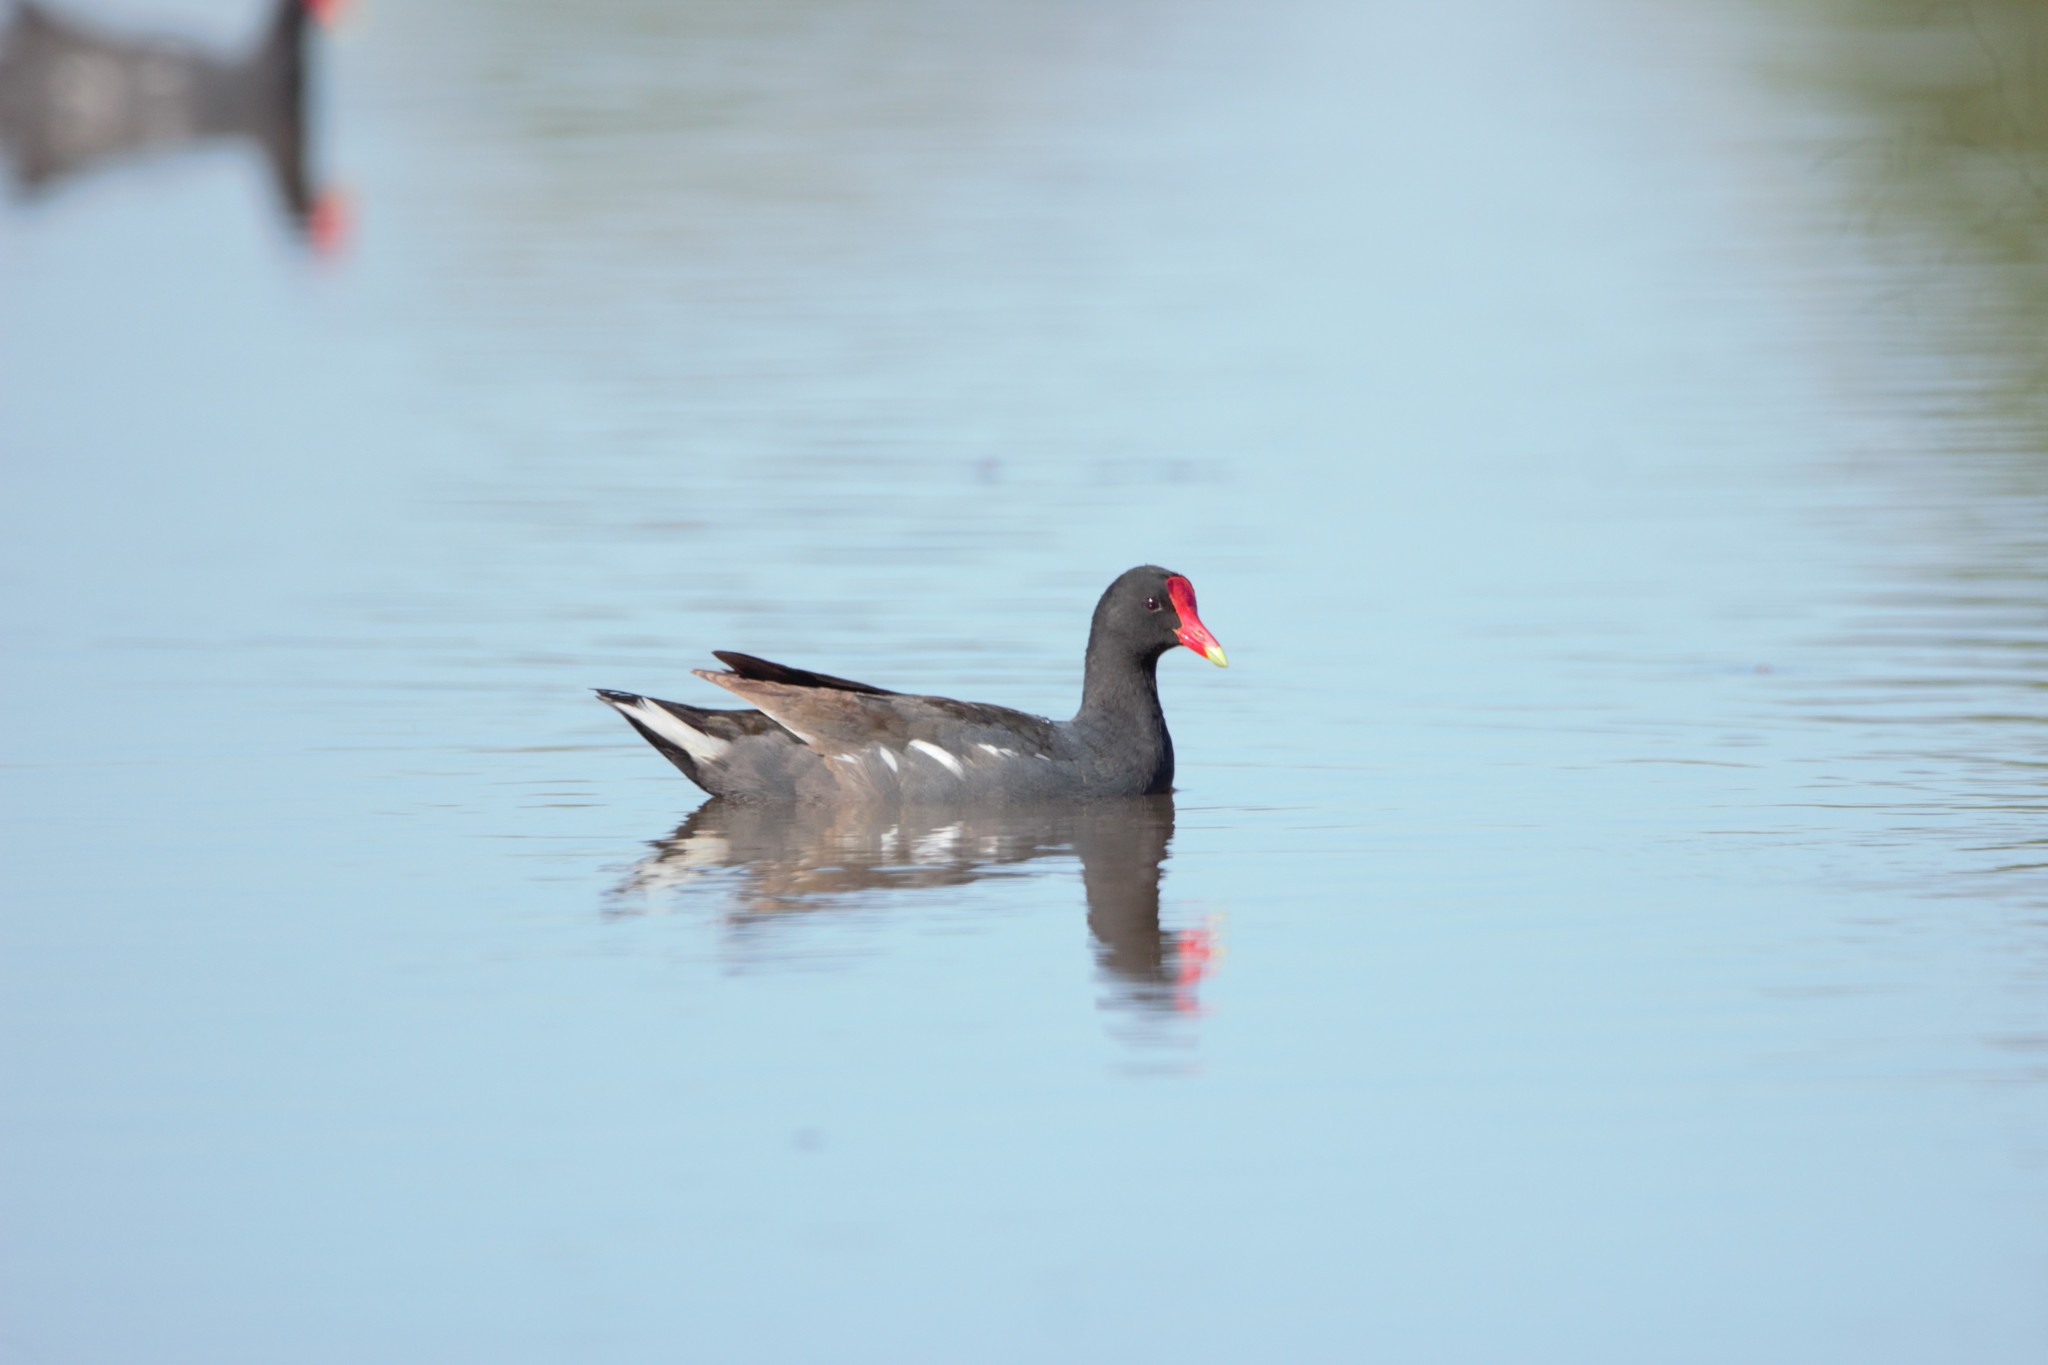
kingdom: Animalia
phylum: Chordata
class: Aves
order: Gruiformes
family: Rallidae
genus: Gallinula
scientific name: Gallinula chloropus
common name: Common moorhen
